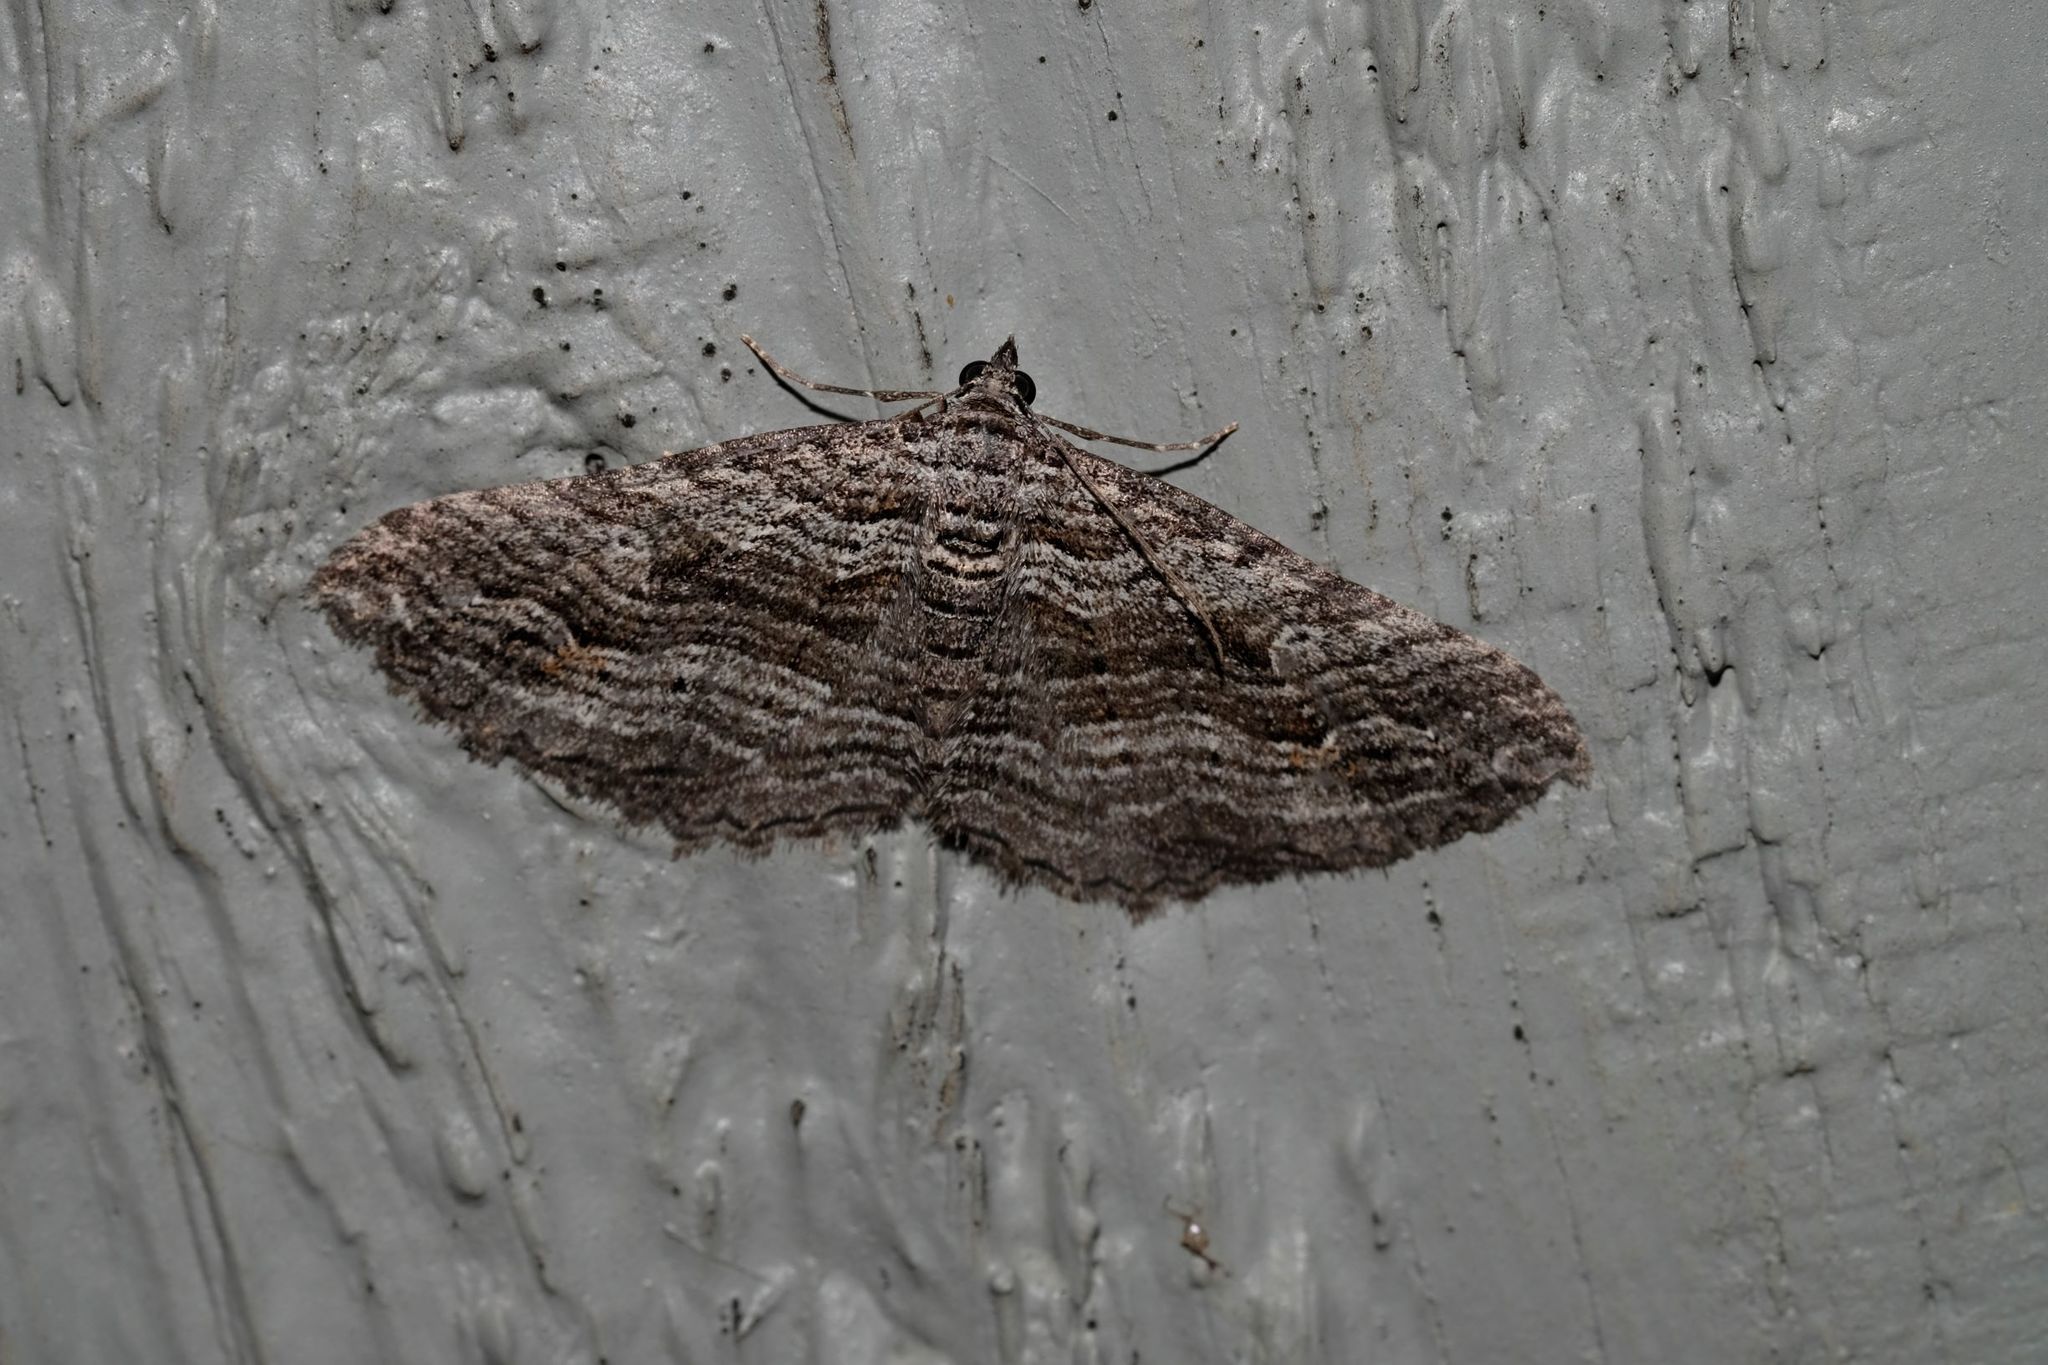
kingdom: Animalia
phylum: Arthropoda
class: Insecta
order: Lepidoptera
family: Geometridae
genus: Chrysolarentia
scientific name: Chrysolarentia severata
